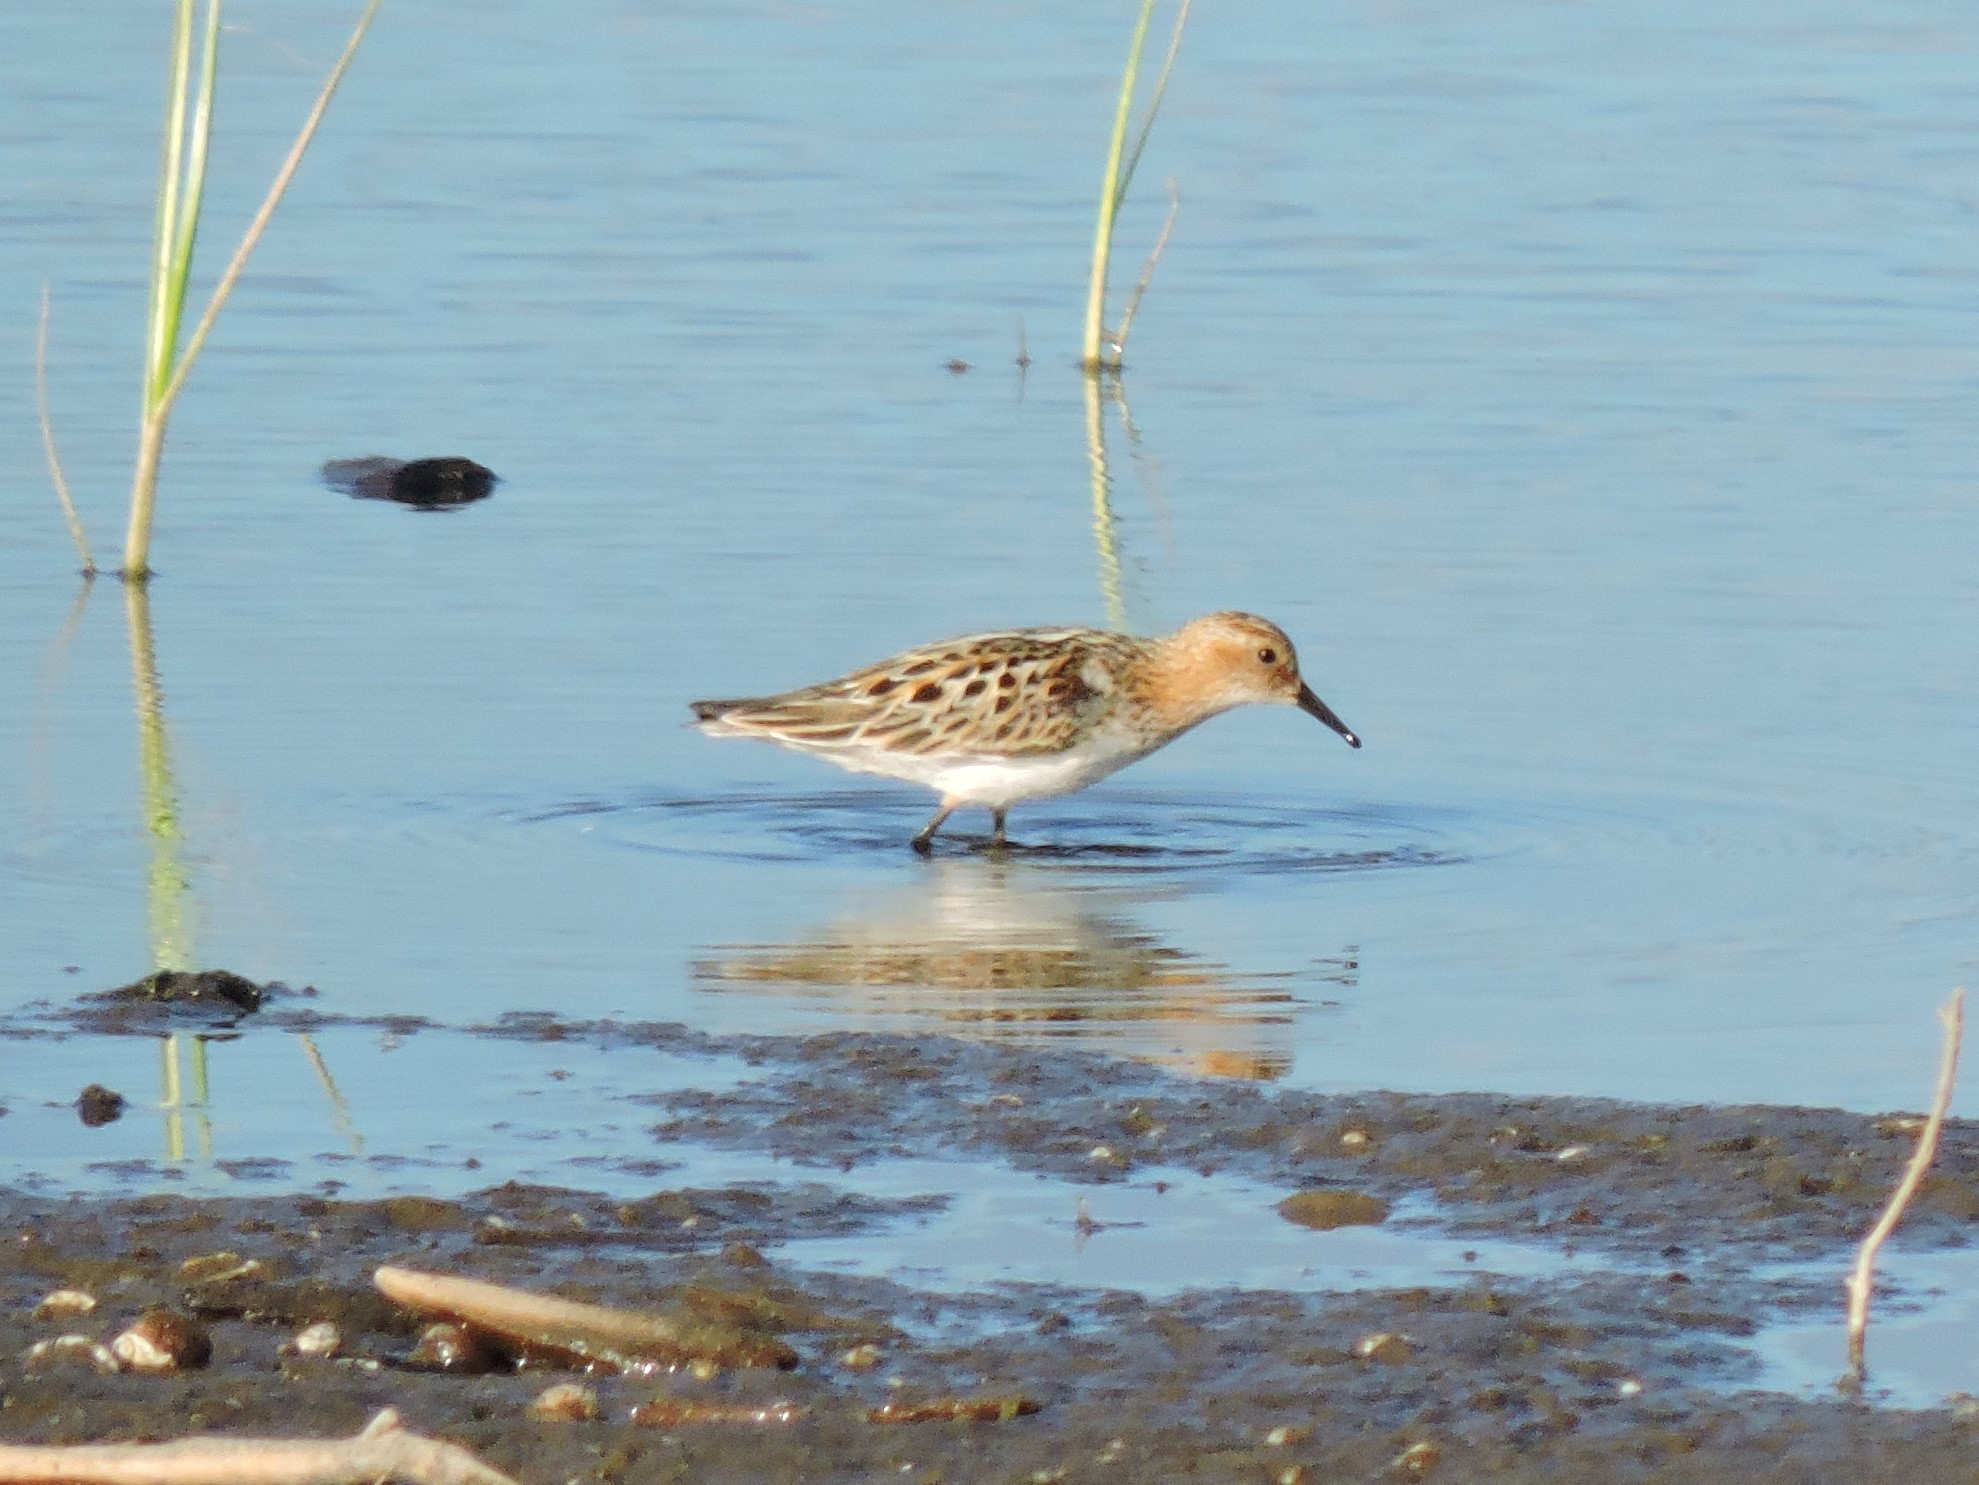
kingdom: Animalia
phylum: Chordata
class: Aves
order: Charadriiformes
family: Scolopacidae
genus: Calidris
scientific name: Calidris minuta
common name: Little stint
